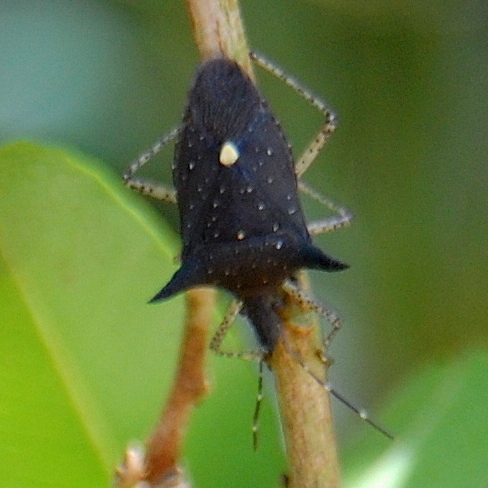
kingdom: Animalia
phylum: Arthropoda
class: Insecta
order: Hemiptera
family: Pentatomidae
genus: Proxys
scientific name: Proxys albopunctulatus
